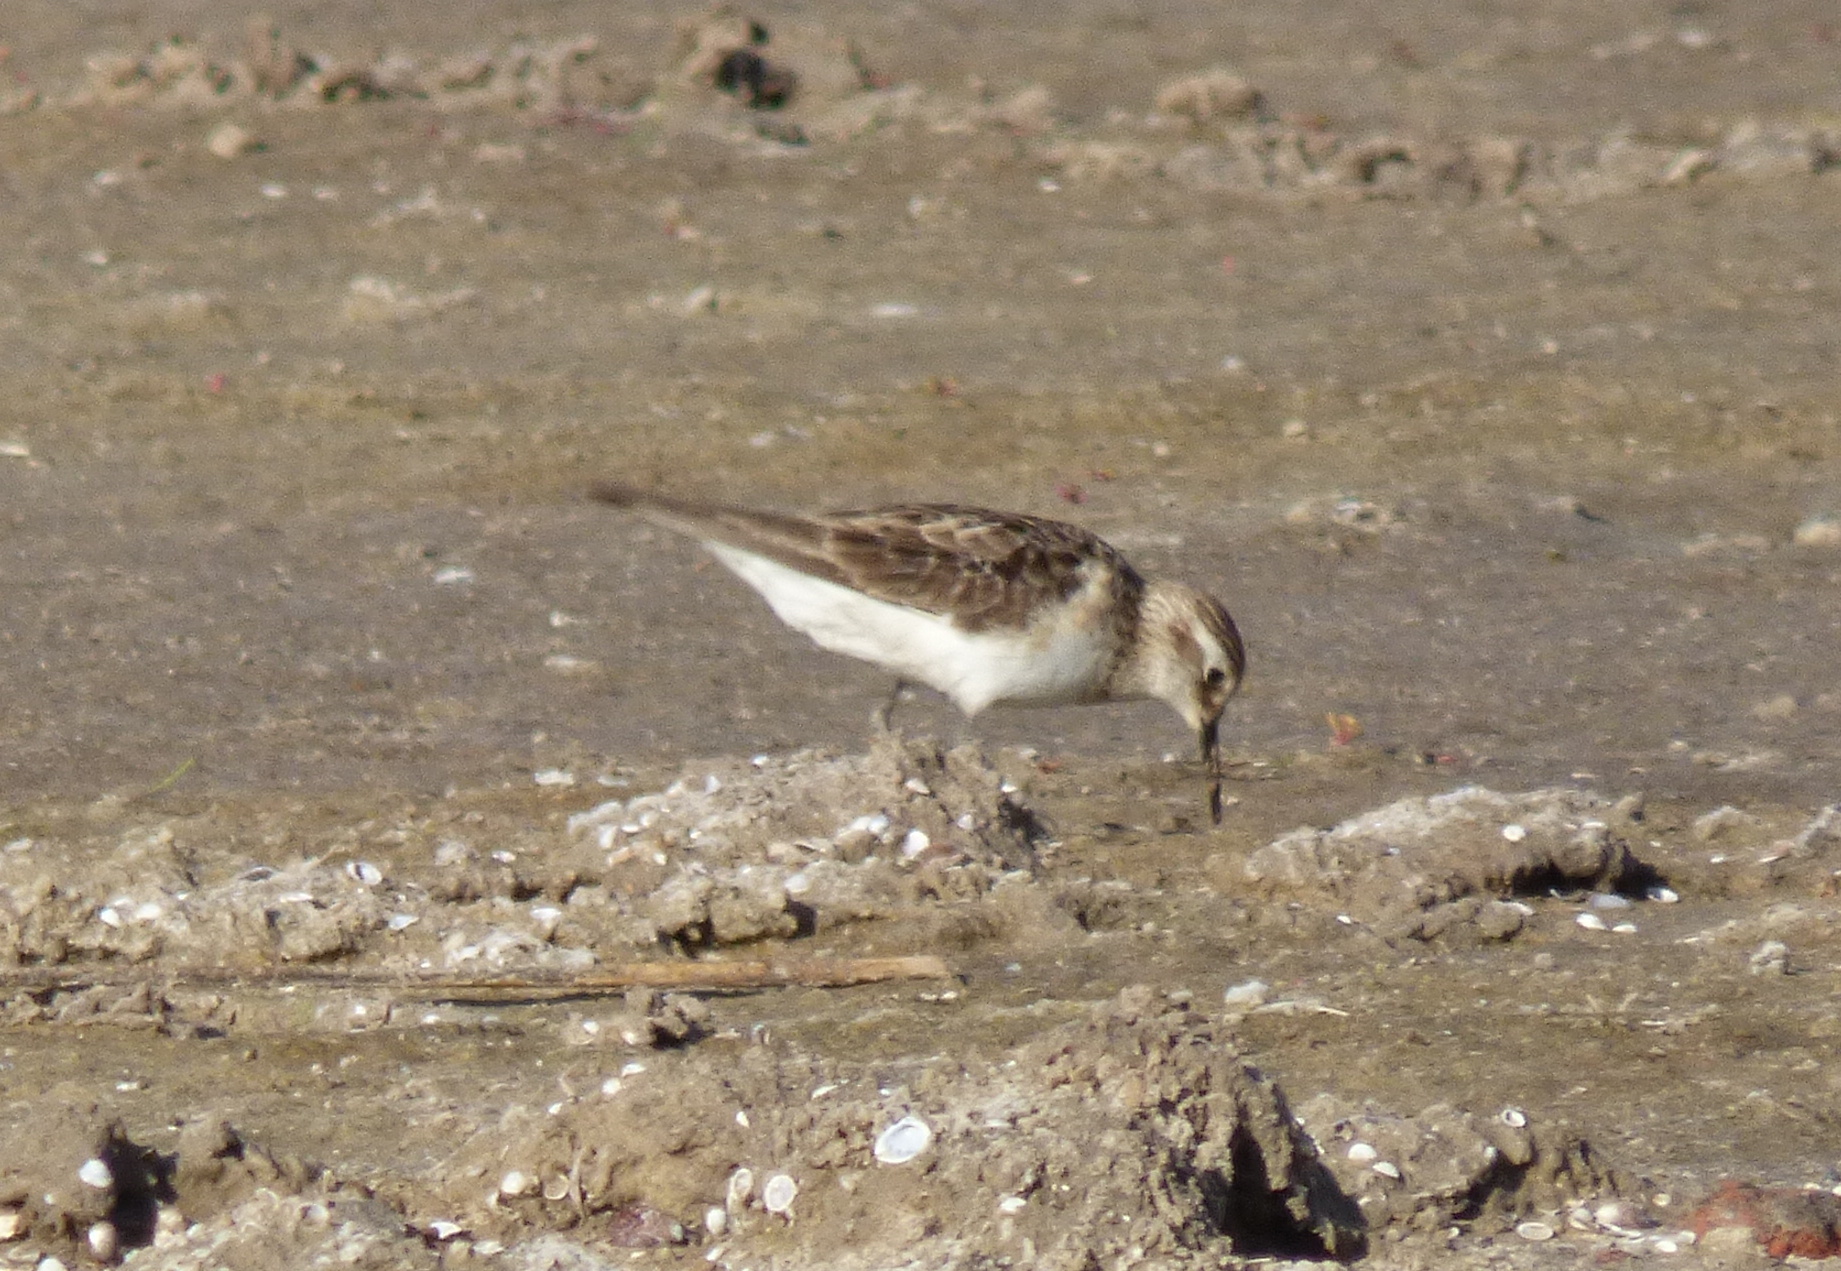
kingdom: Animalia
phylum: Chordata
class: Aves
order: Charadriiformes
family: Scolopacidae
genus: Calidris
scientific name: Calidris bairdii
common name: Baird's sandpiper
